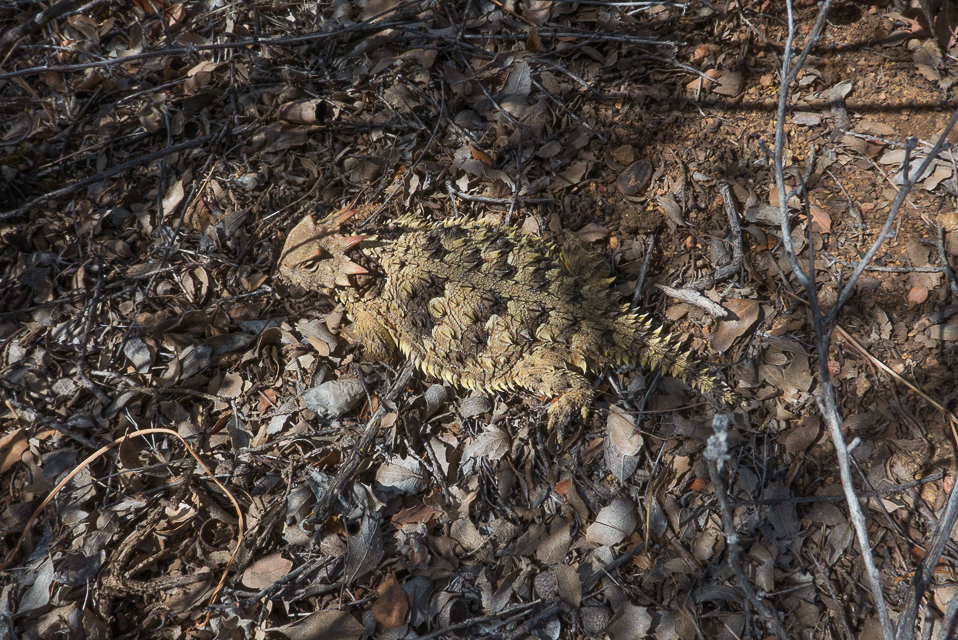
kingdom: Animalia
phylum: Chordata
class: Squamata
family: Phrynosomatidae
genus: Phrynosoma
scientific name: Phrynosoma blainvillii
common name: San diego horned lizard
